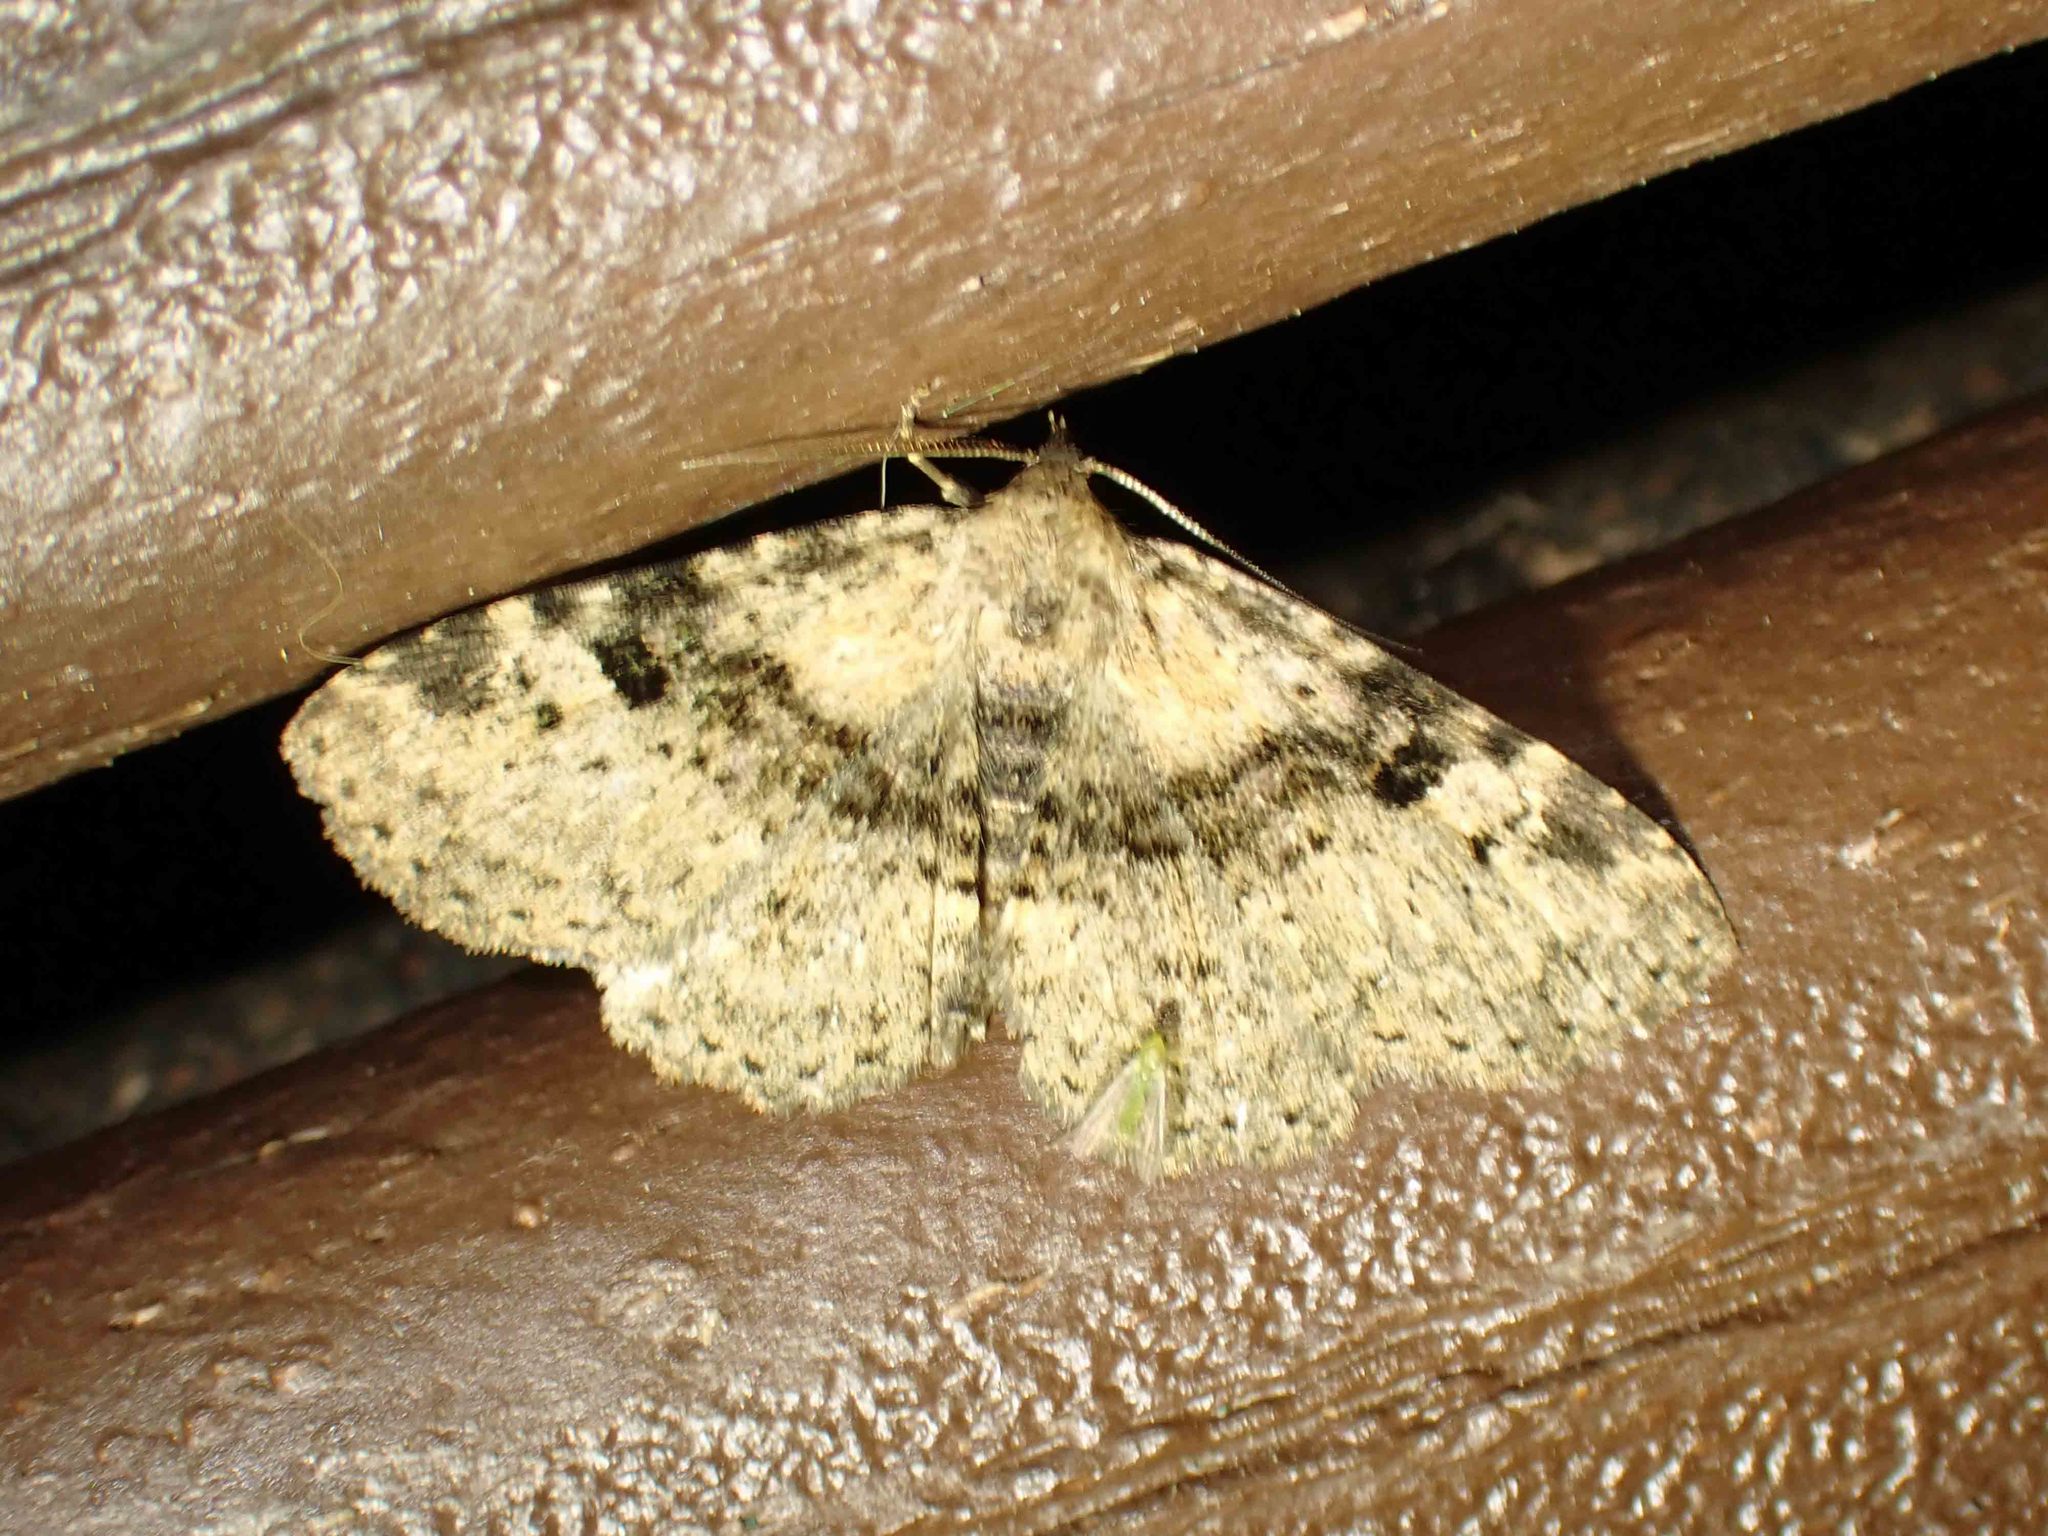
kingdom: Animalia
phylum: Arthropoda
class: Insecta
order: Lepidoptera
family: Erebidae
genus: Metalectra
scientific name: Metalectra quadrisignata
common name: Four-spotted fungus moth
